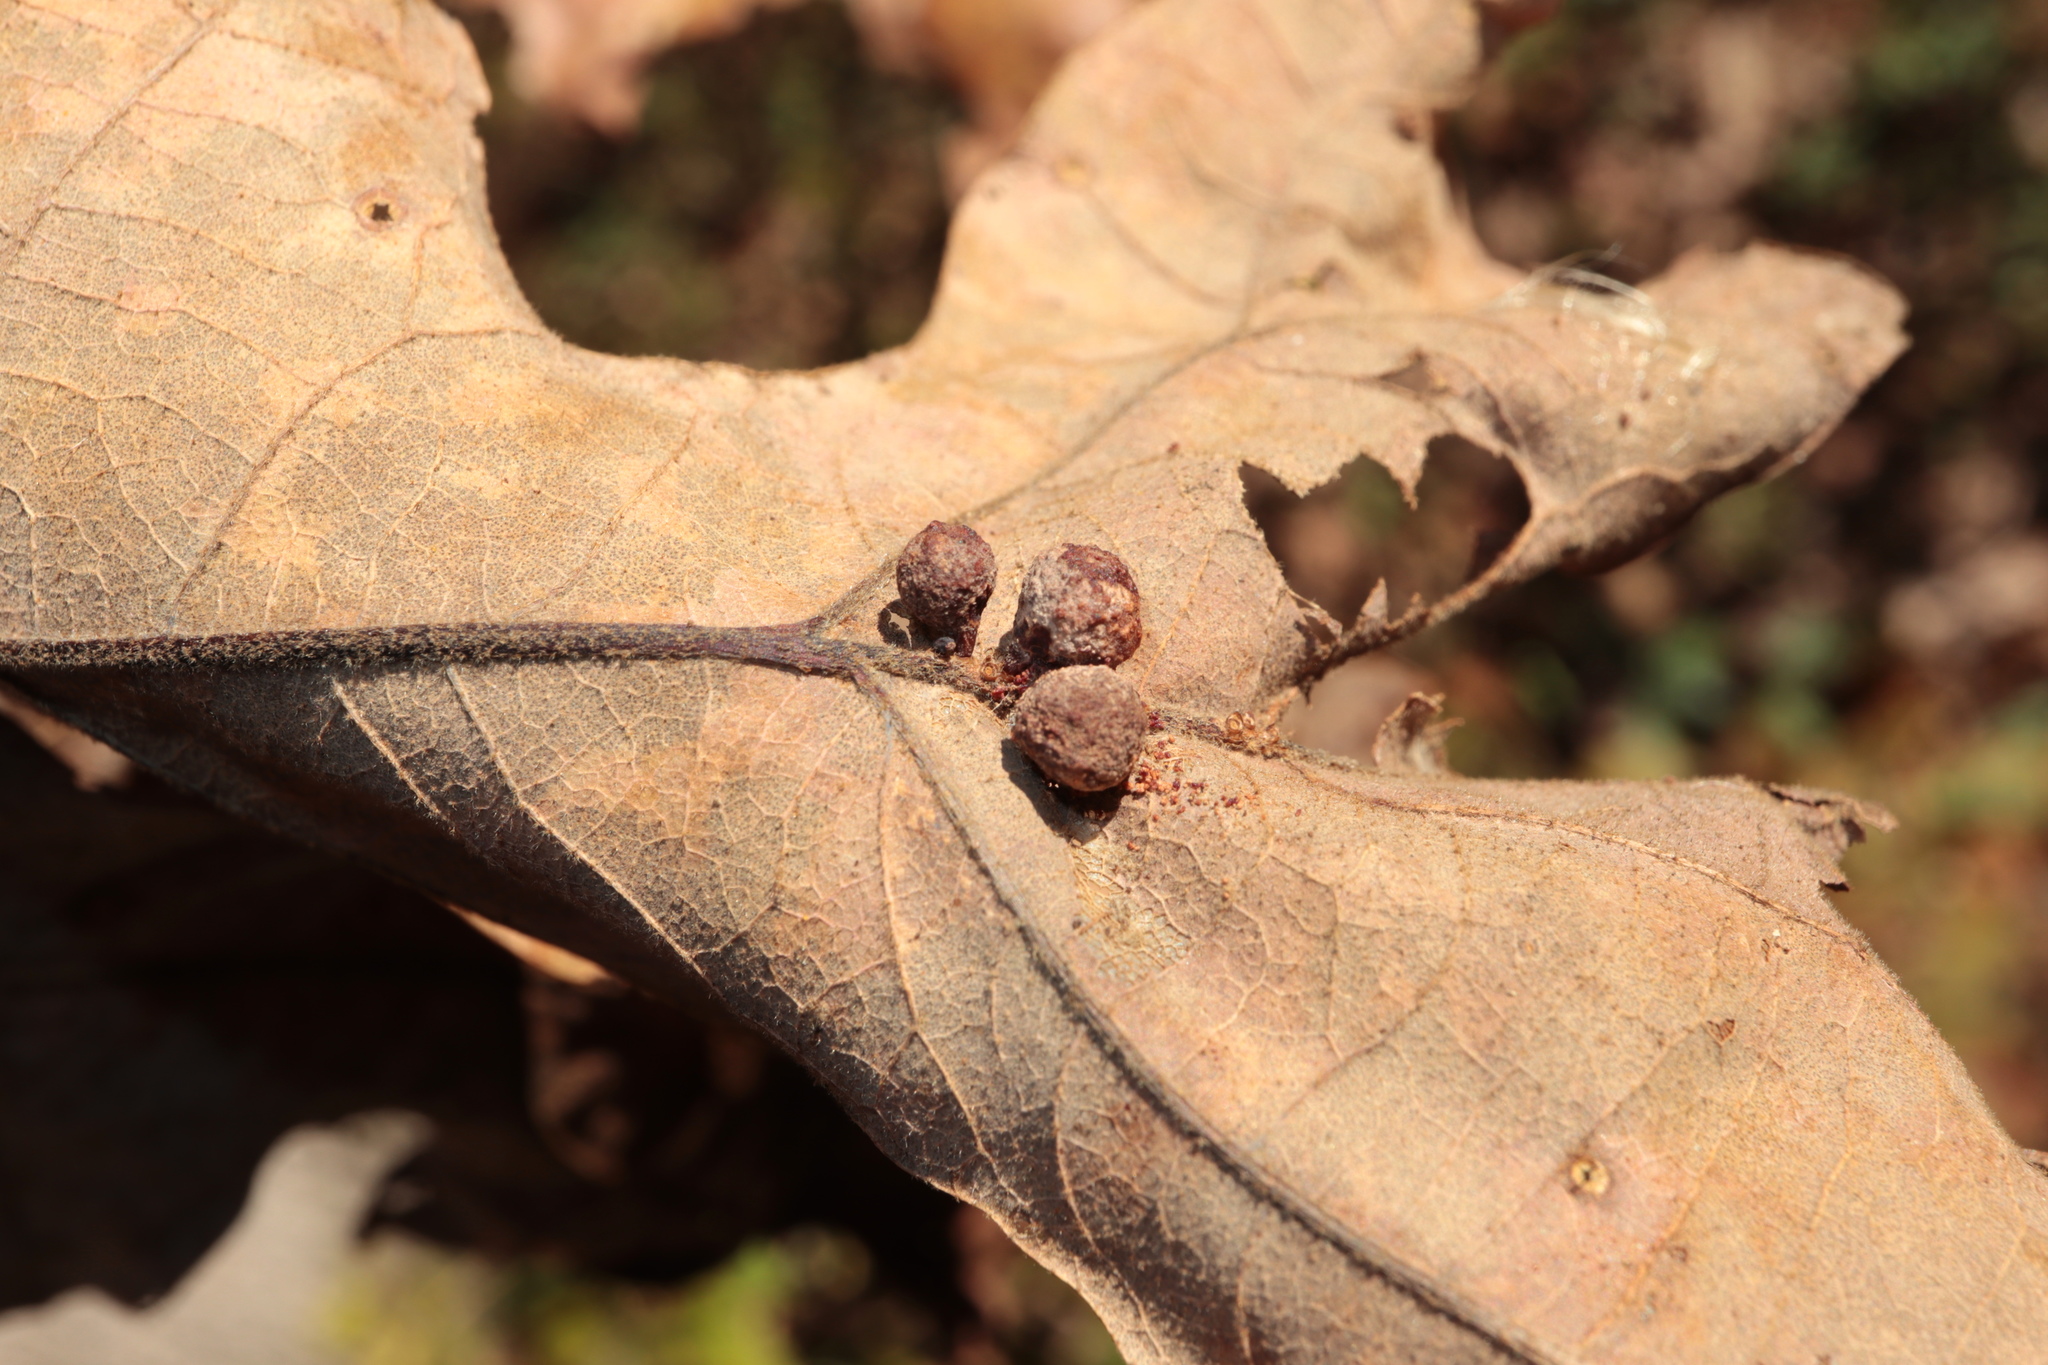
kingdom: Animalia
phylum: Arthropoda
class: Insecta
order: Hymenoptera
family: Cynipidae
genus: Andricus
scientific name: Andricus
